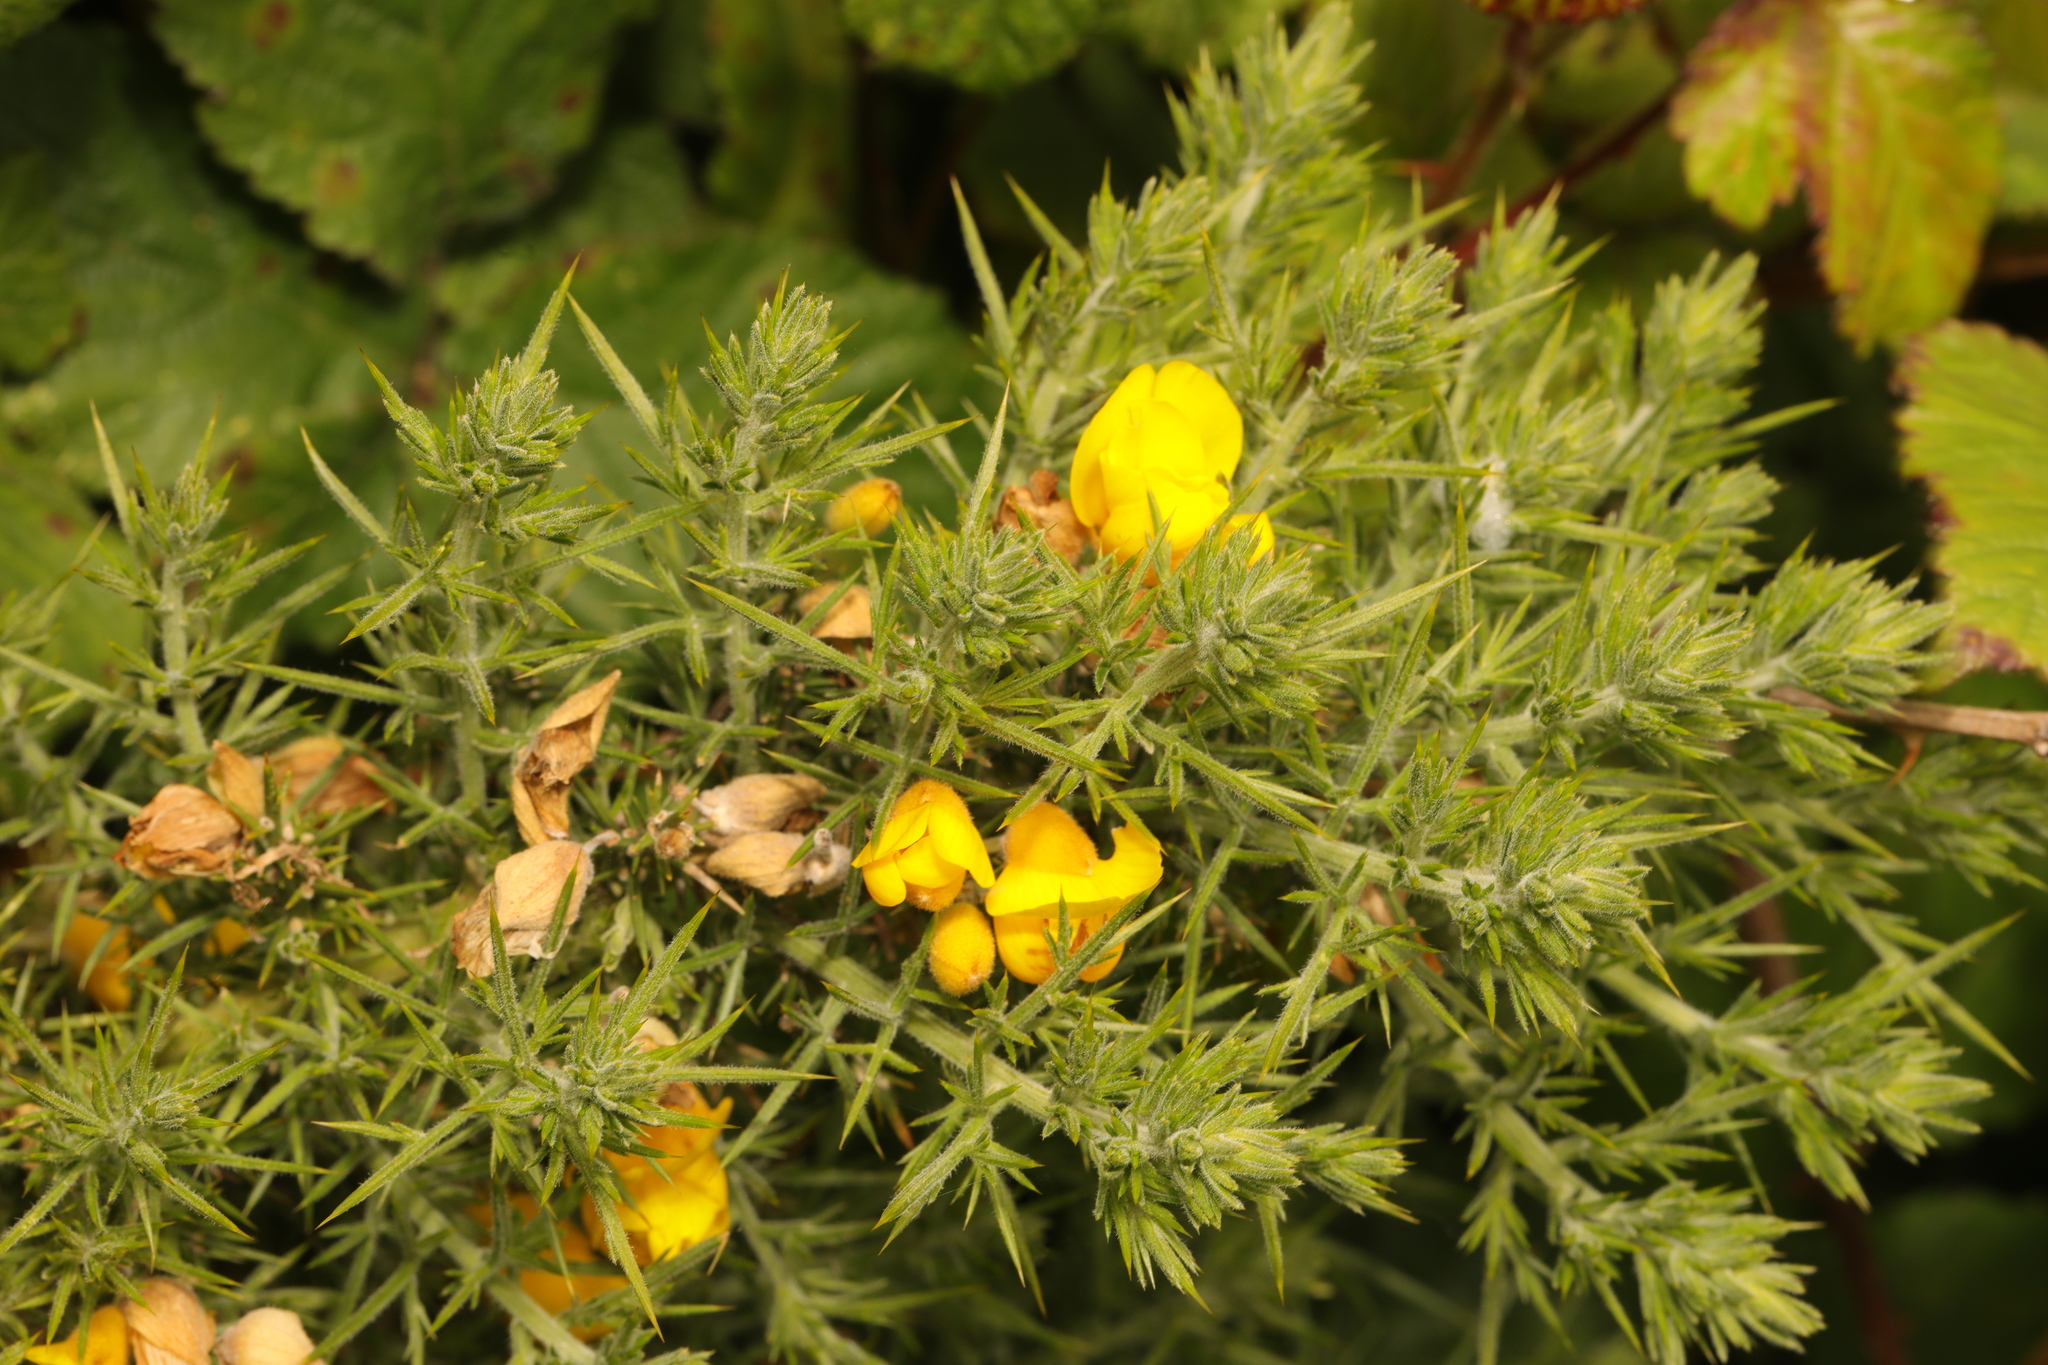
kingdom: Plantae
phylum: Tracheophyta
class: Magnoliopsida
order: Fabales
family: Fabaceae
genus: Ulex
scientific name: Ulex europaeus
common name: Common gorse
